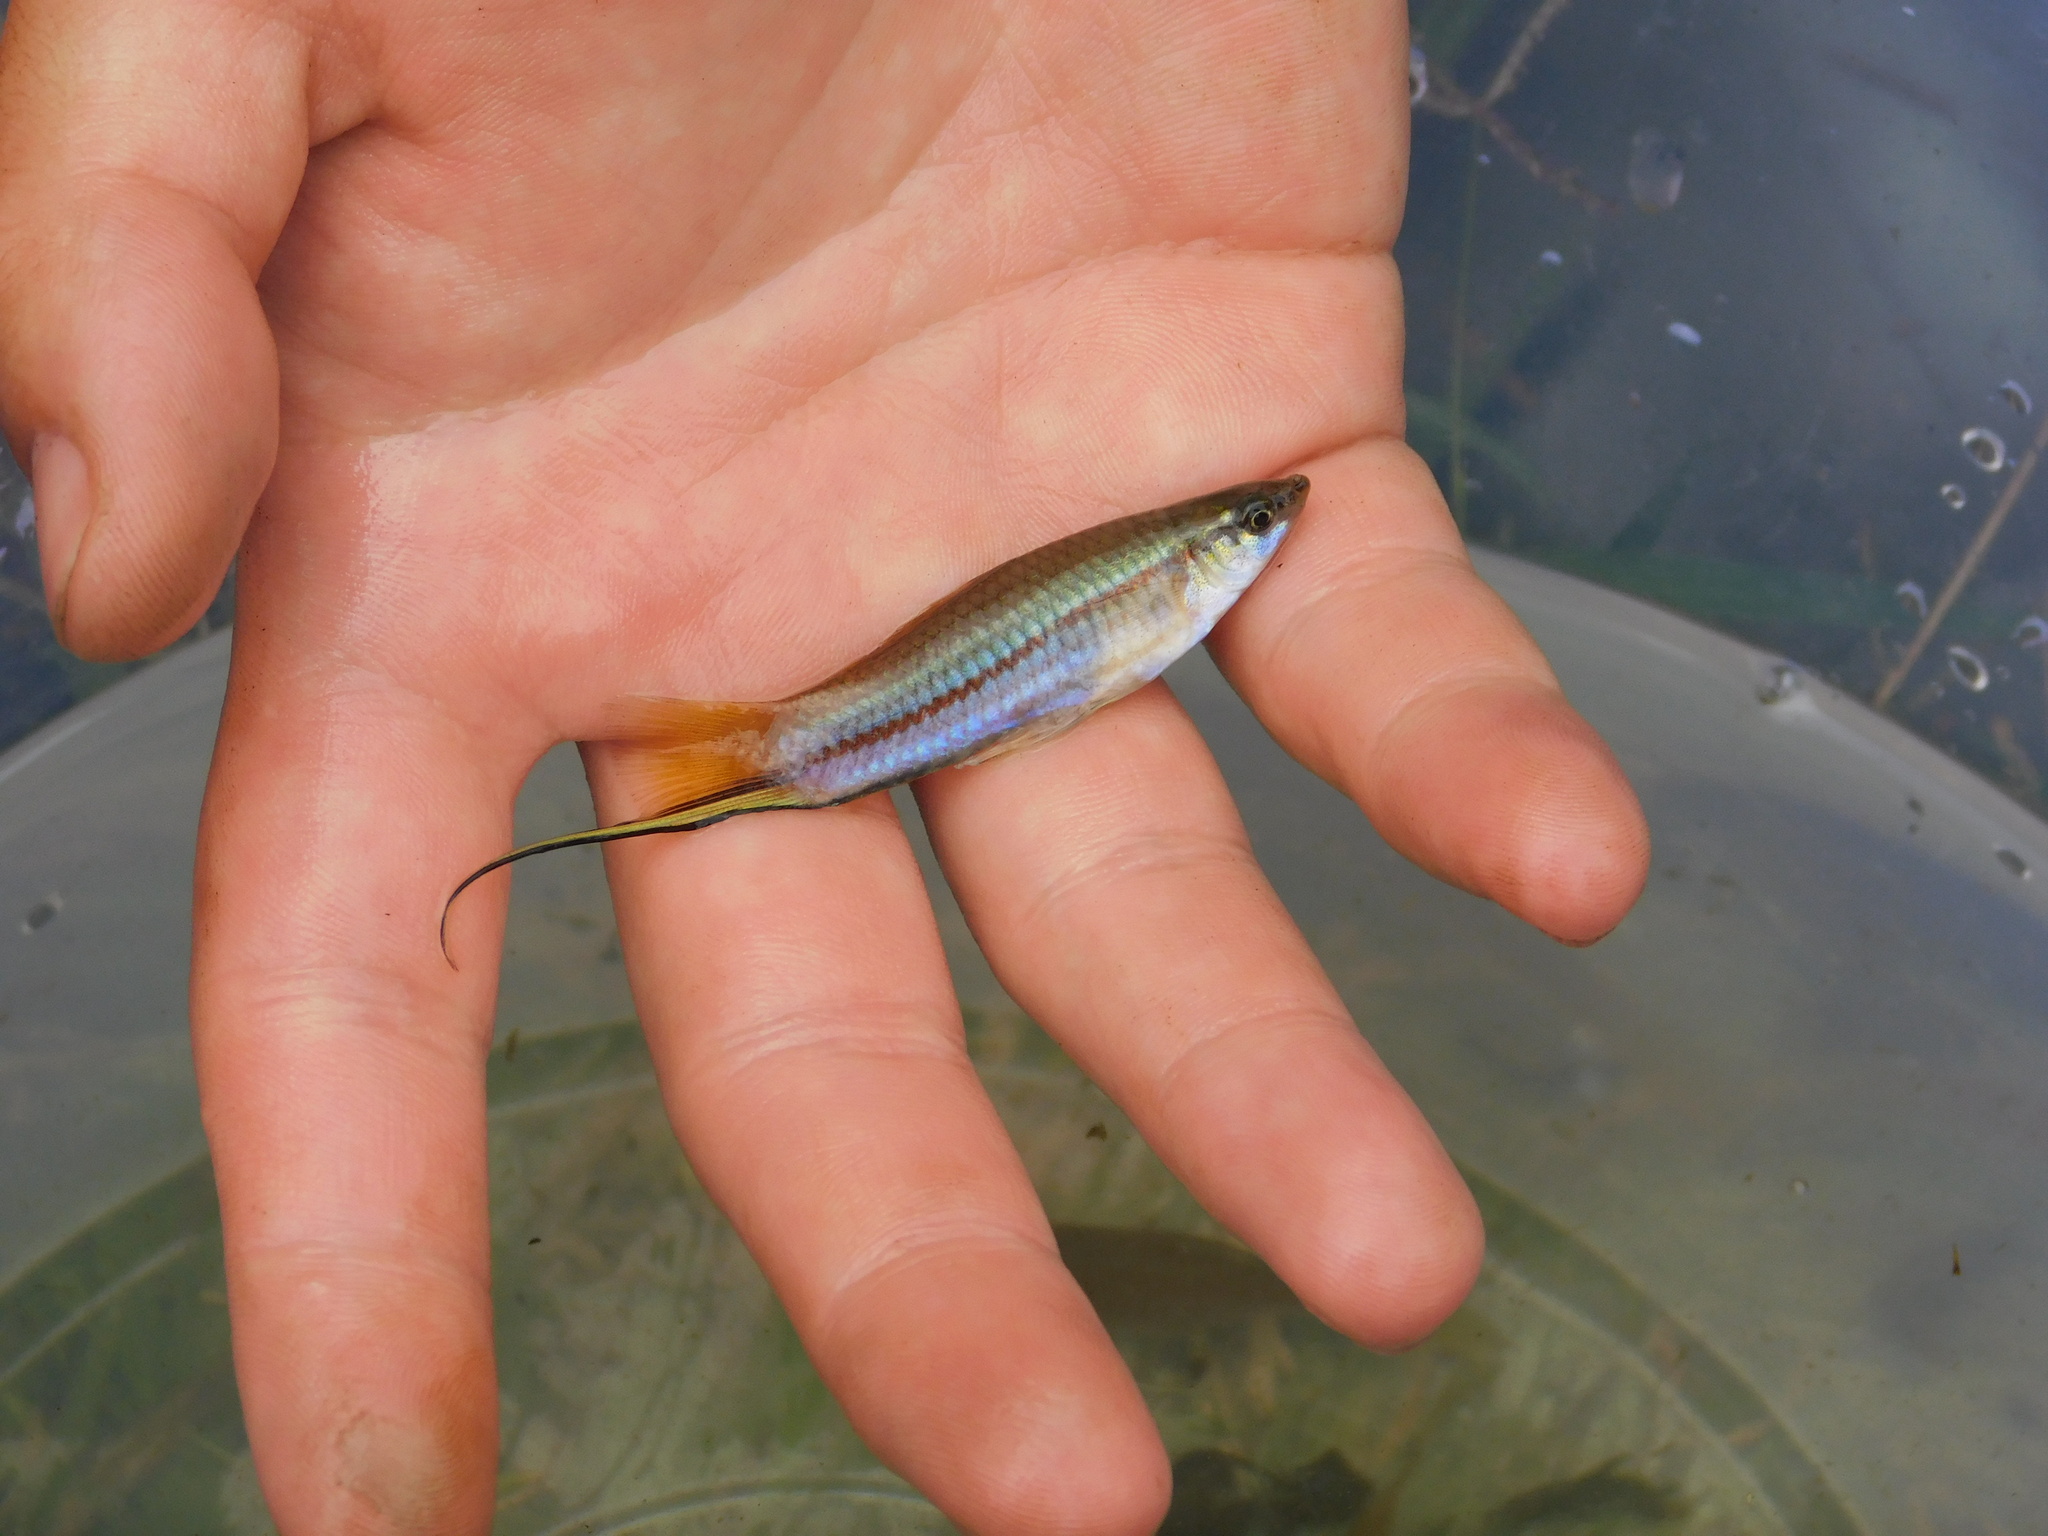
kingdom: Animalia
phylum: Chordata
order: Cyprinodontiformes
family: Poeciliidae
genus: Xiphophorus
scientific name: Xiphophorus hellerii
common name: Green swordtail
